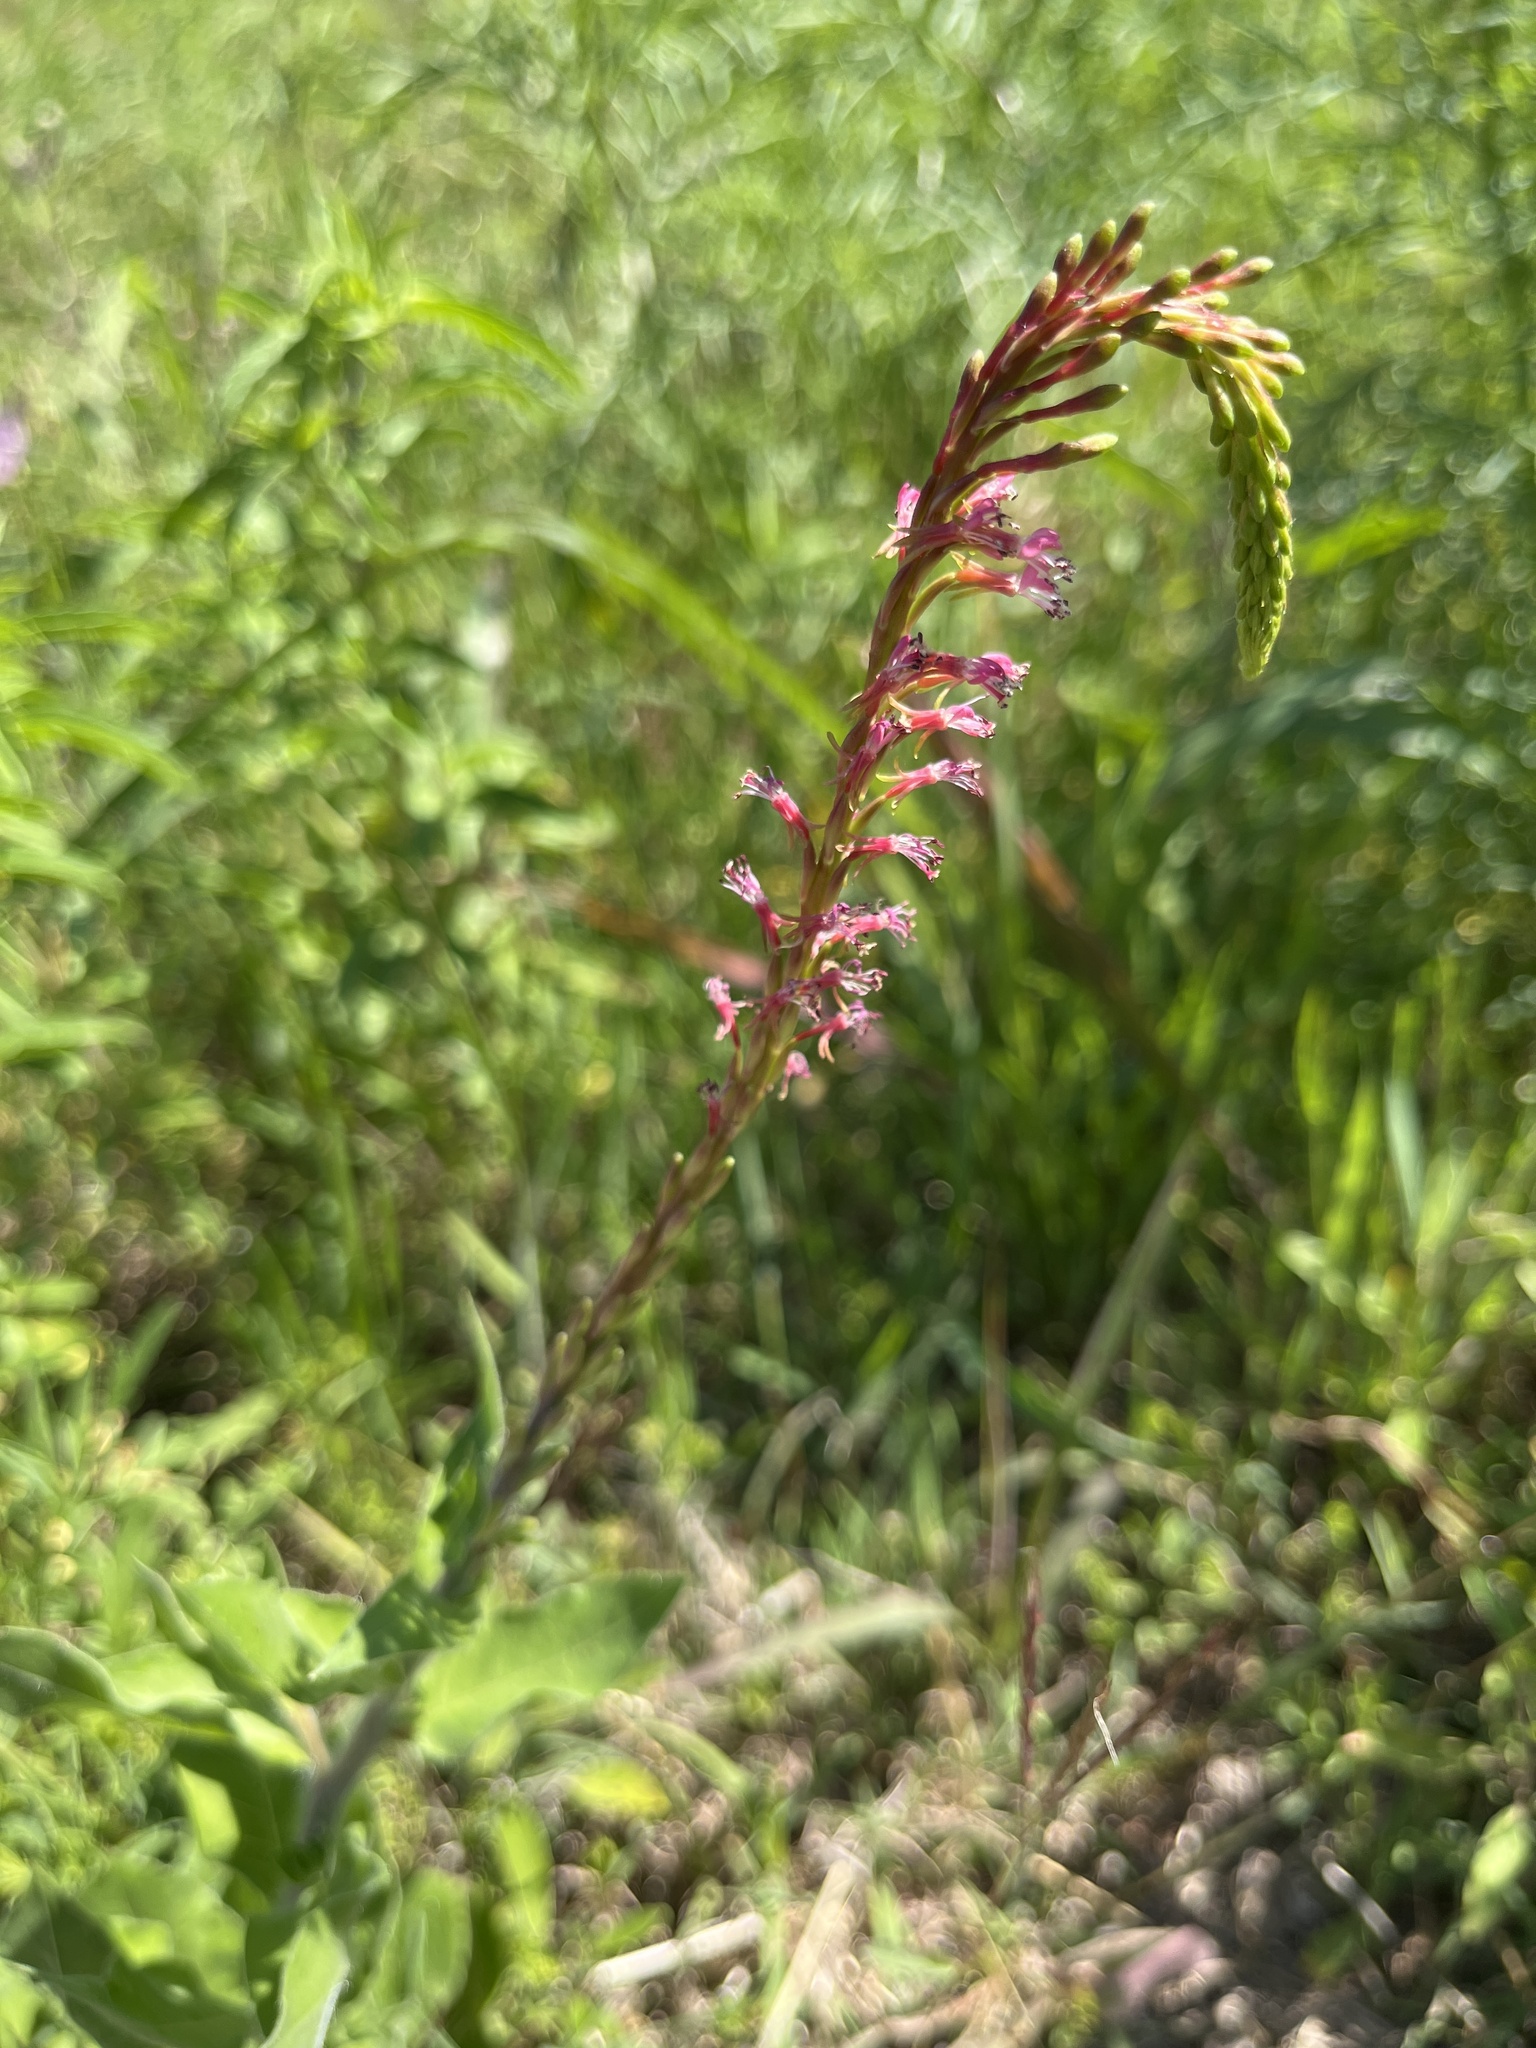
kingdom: Plantae
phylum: Tracheophyta
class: Magnoliopsida
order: Myrtales
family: Onagraceae
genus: Oenothera
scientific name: Oenothera curtiflora
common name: Velvetweed
